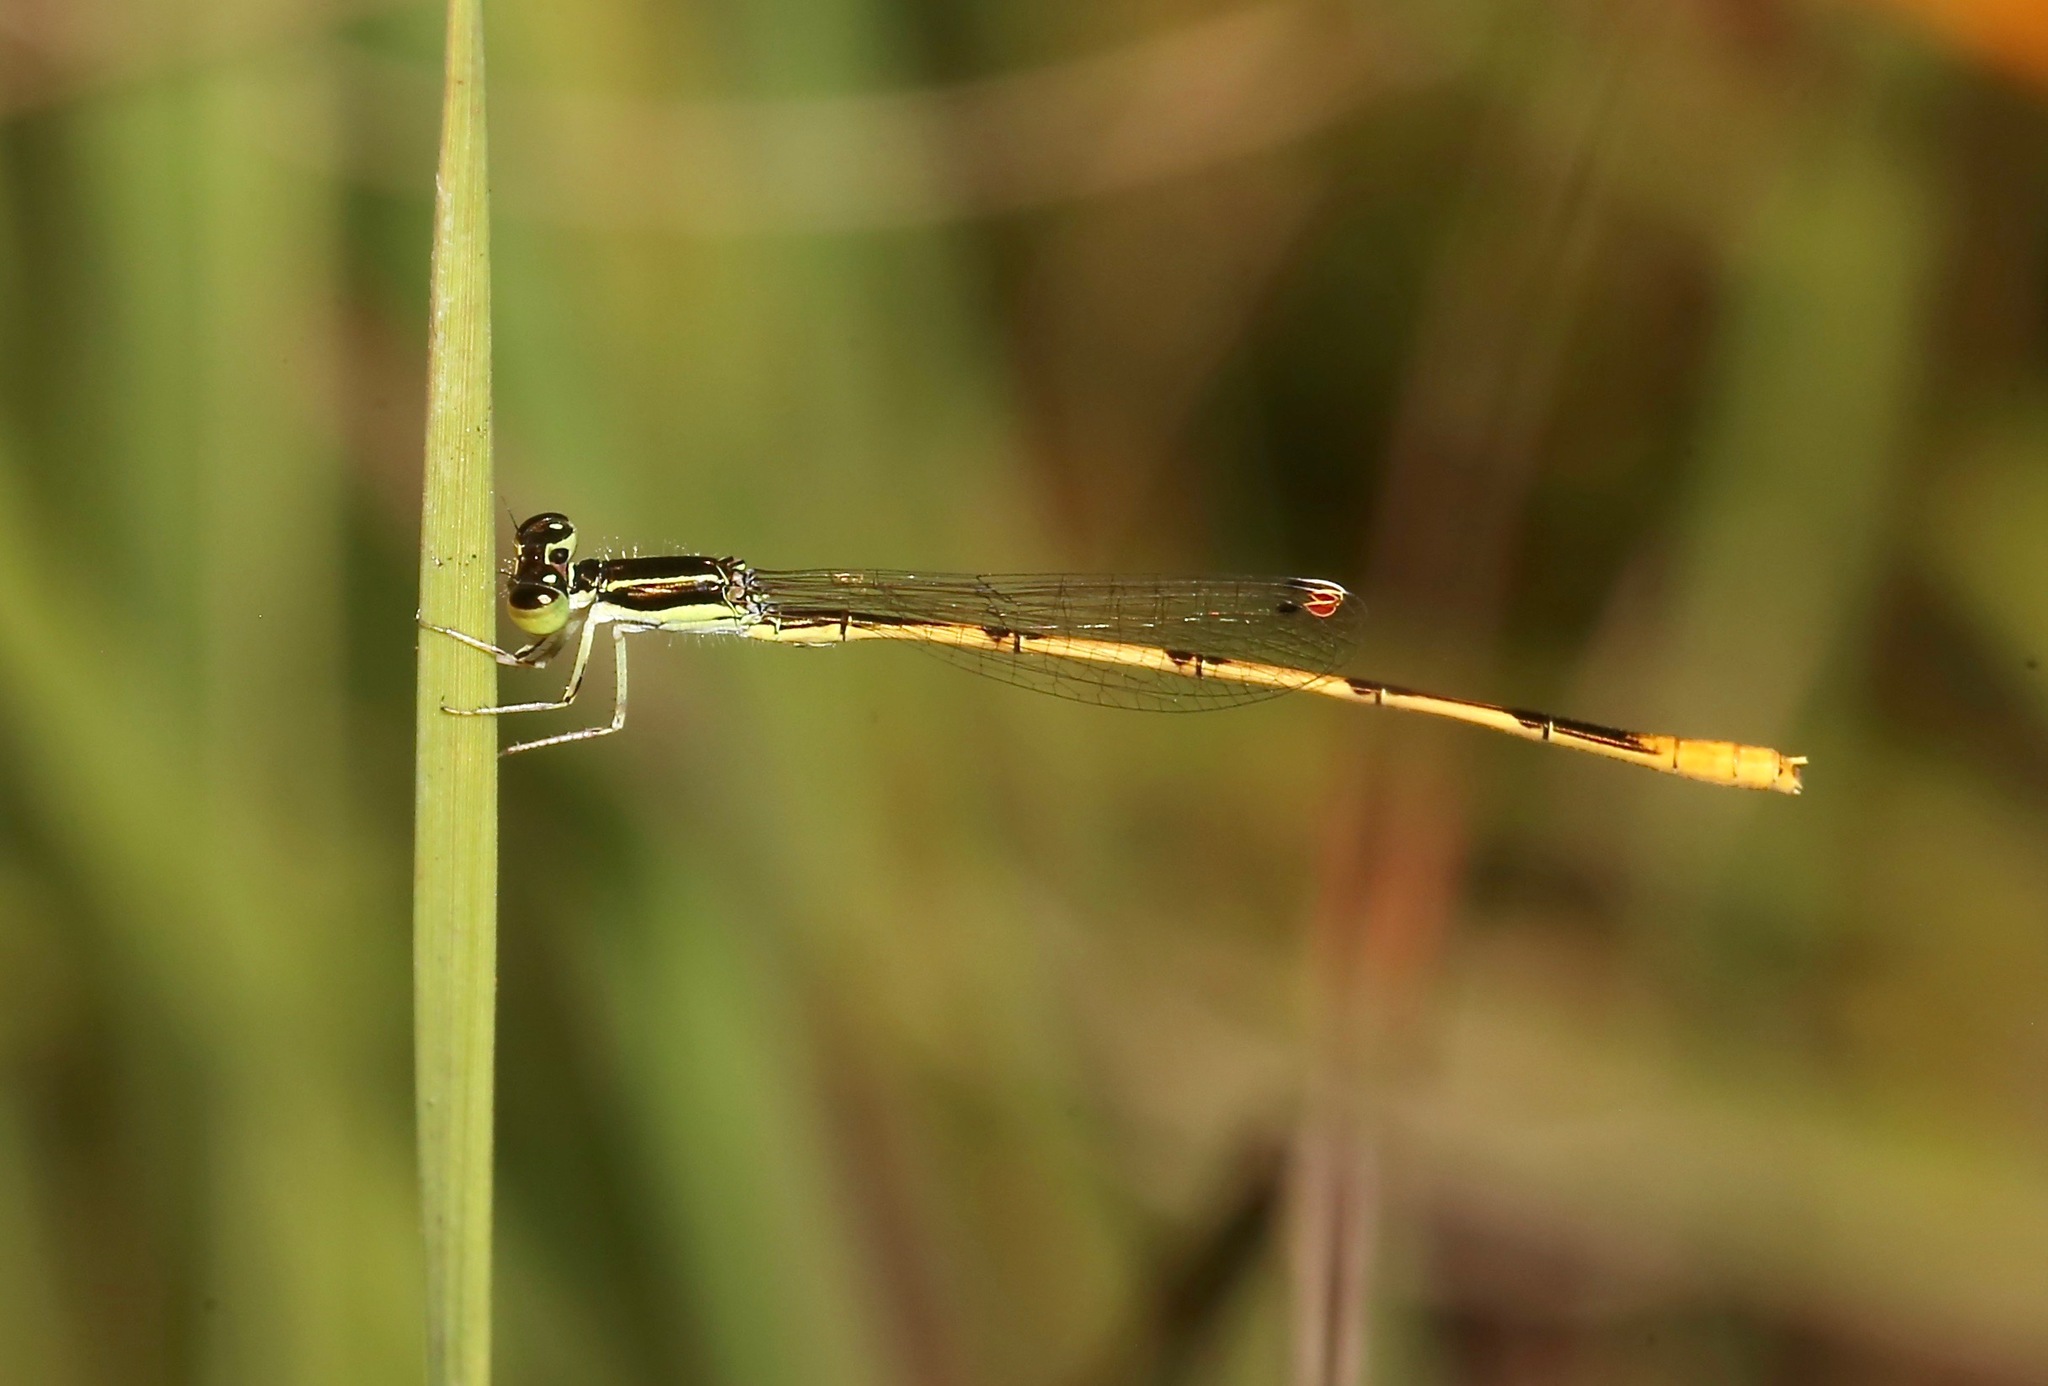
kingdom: Animalia
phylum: Arthropoda
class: Insecta
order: Odonata
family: Coenagrionidae
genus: Ischnura
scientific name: Ischnura hastata
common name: Citrine forktail
